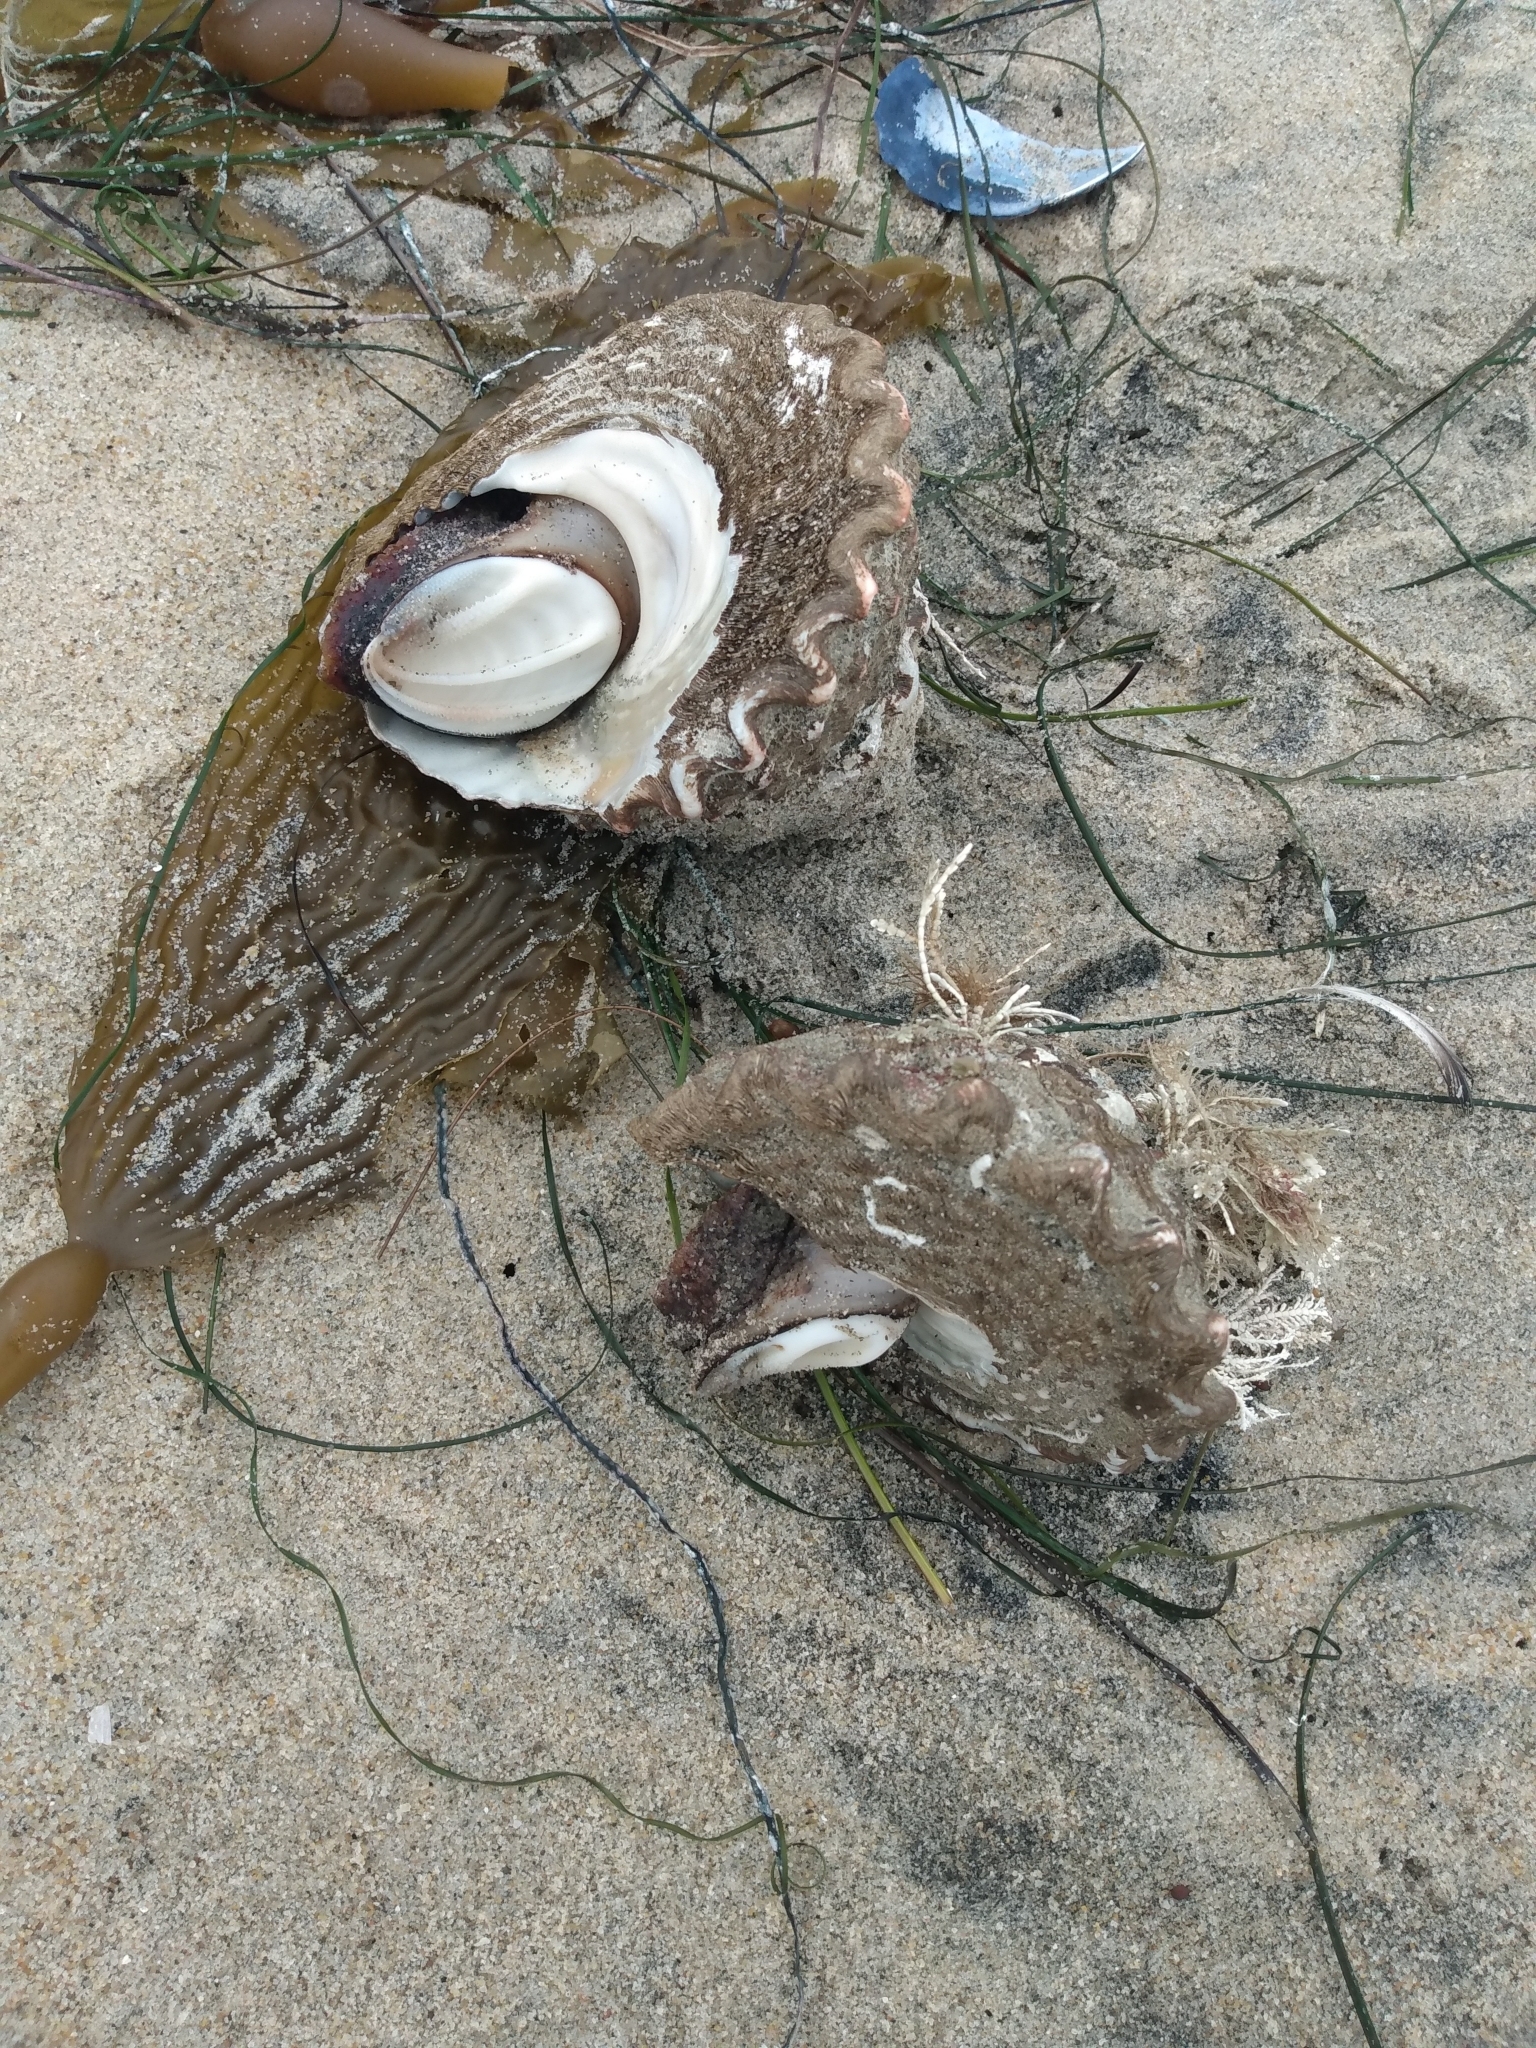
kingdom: Animalia
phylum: Mollusca
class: Gastropoda
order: Trochida
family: Turbinidae
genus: Megastraea
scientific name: Megastraea undosa
